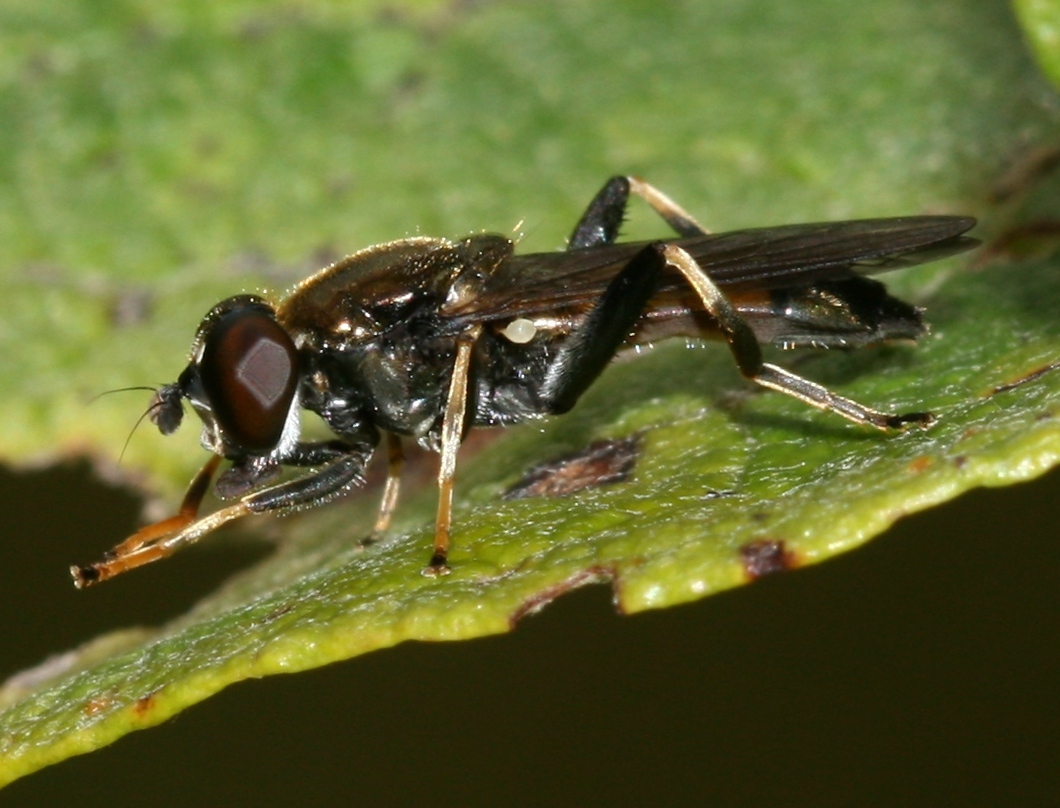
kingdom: Animalia
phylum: Arthropoda
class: Insecta
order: Diptera
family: Syrphidae
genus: Xylota
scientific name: Xylota segnis
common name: Brown-toed forest fly
